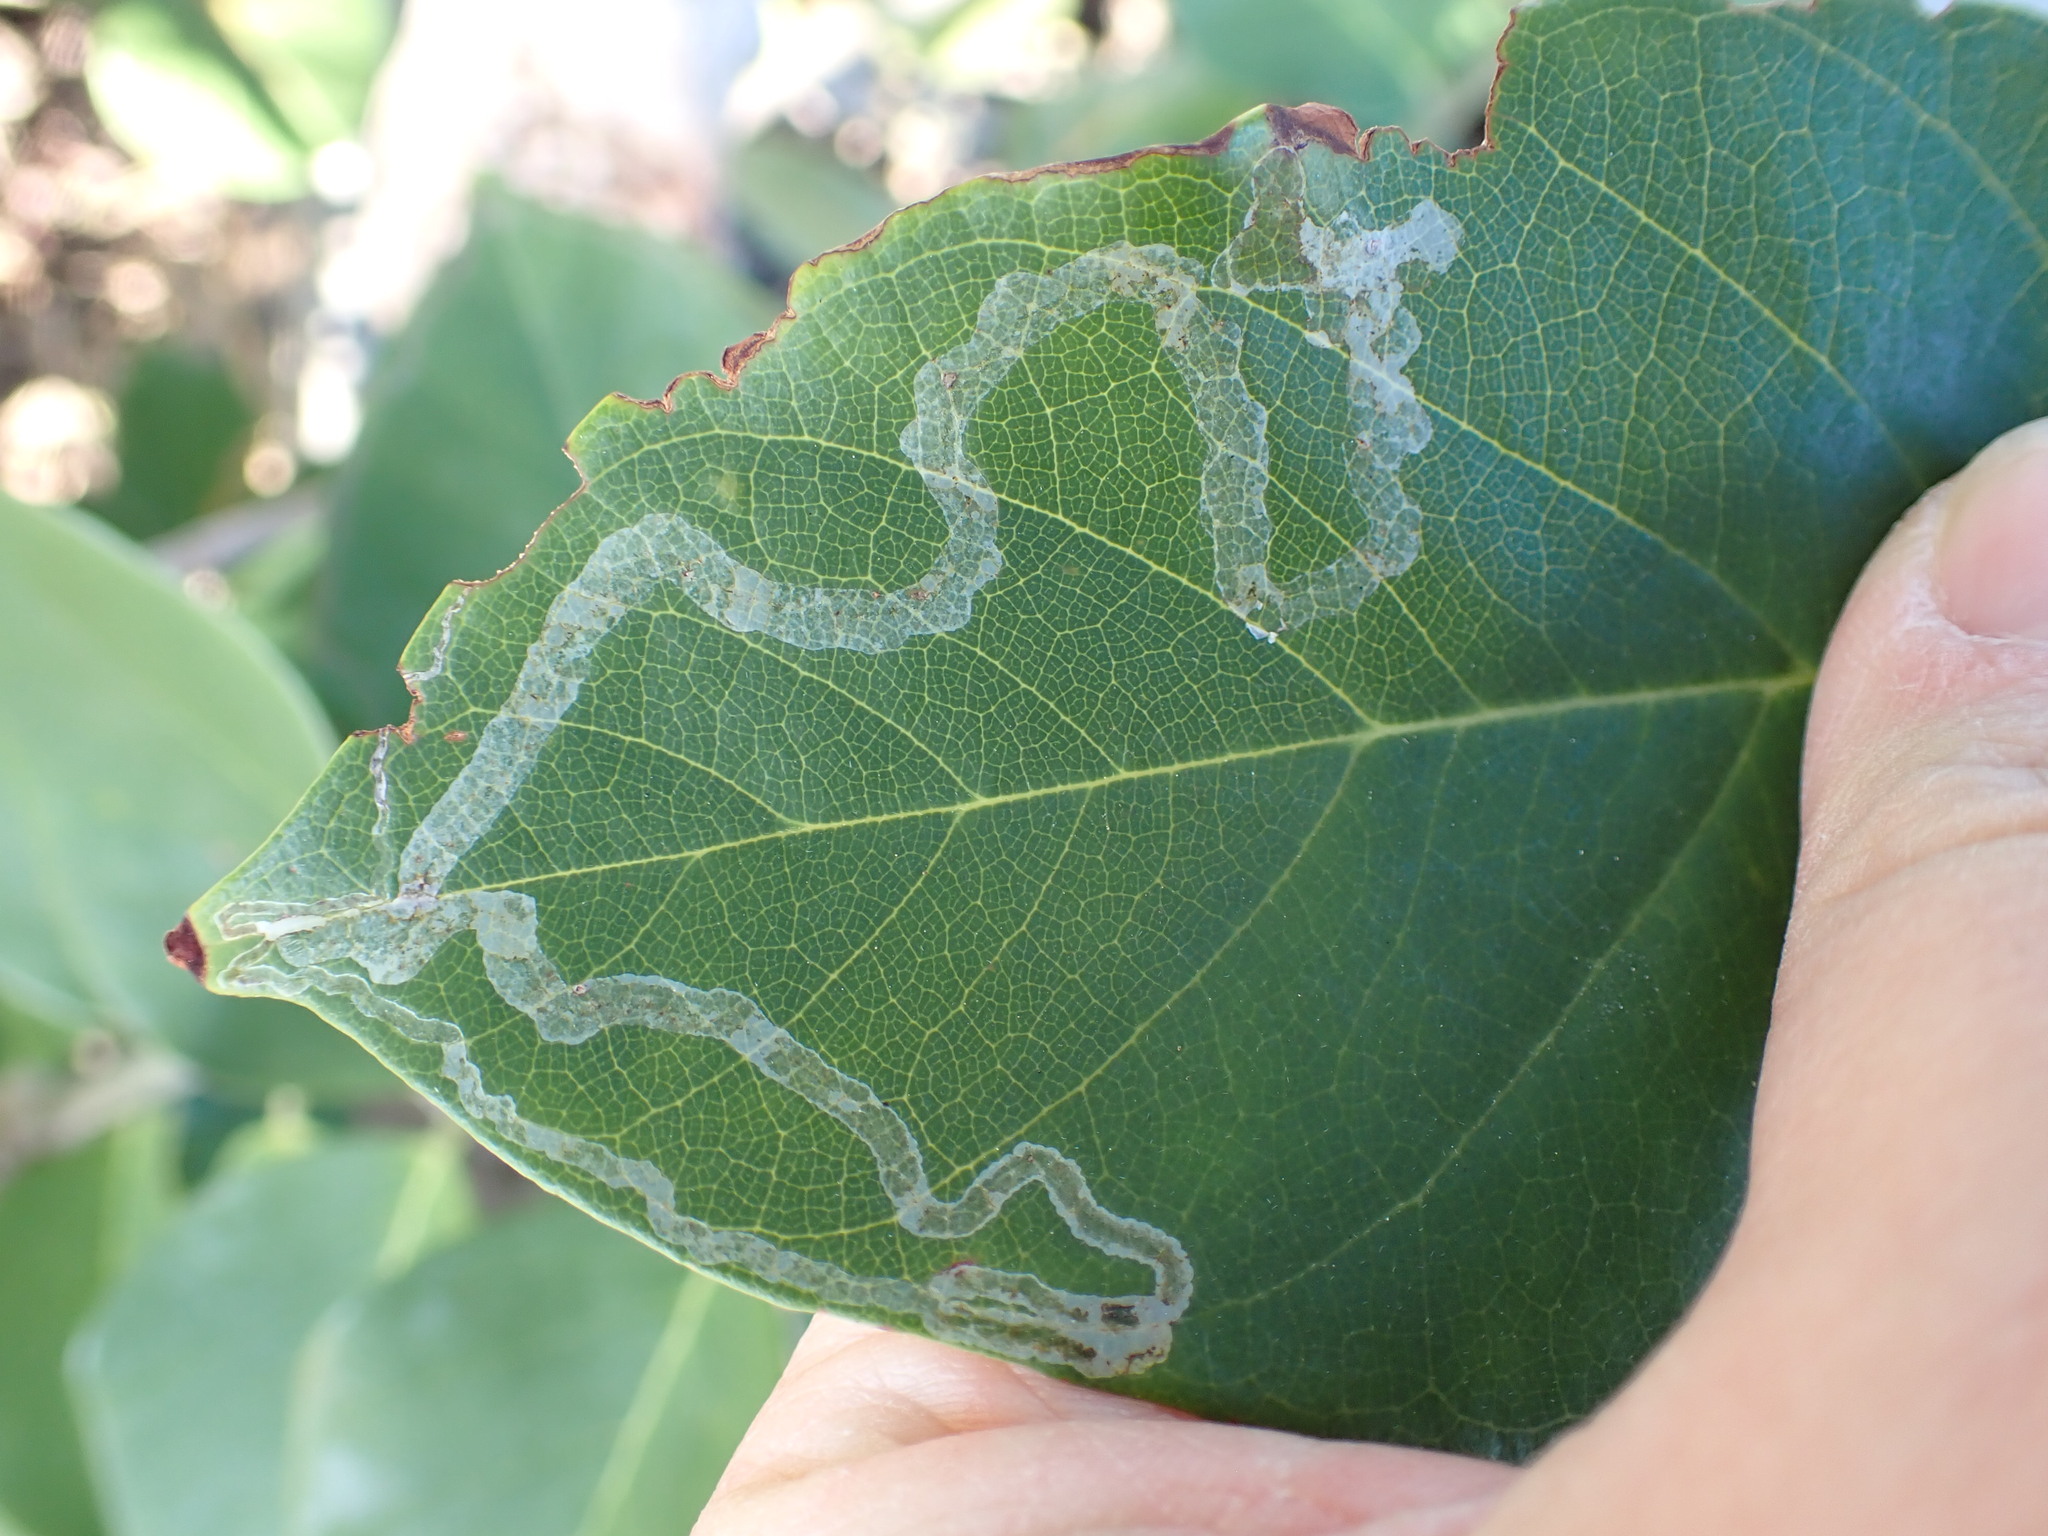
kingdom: Animalia
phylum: Arthropoda
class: Insecta
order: Diptera
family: Agromyzidae
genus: Liriomyza
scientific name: Liriomyza schmidti
